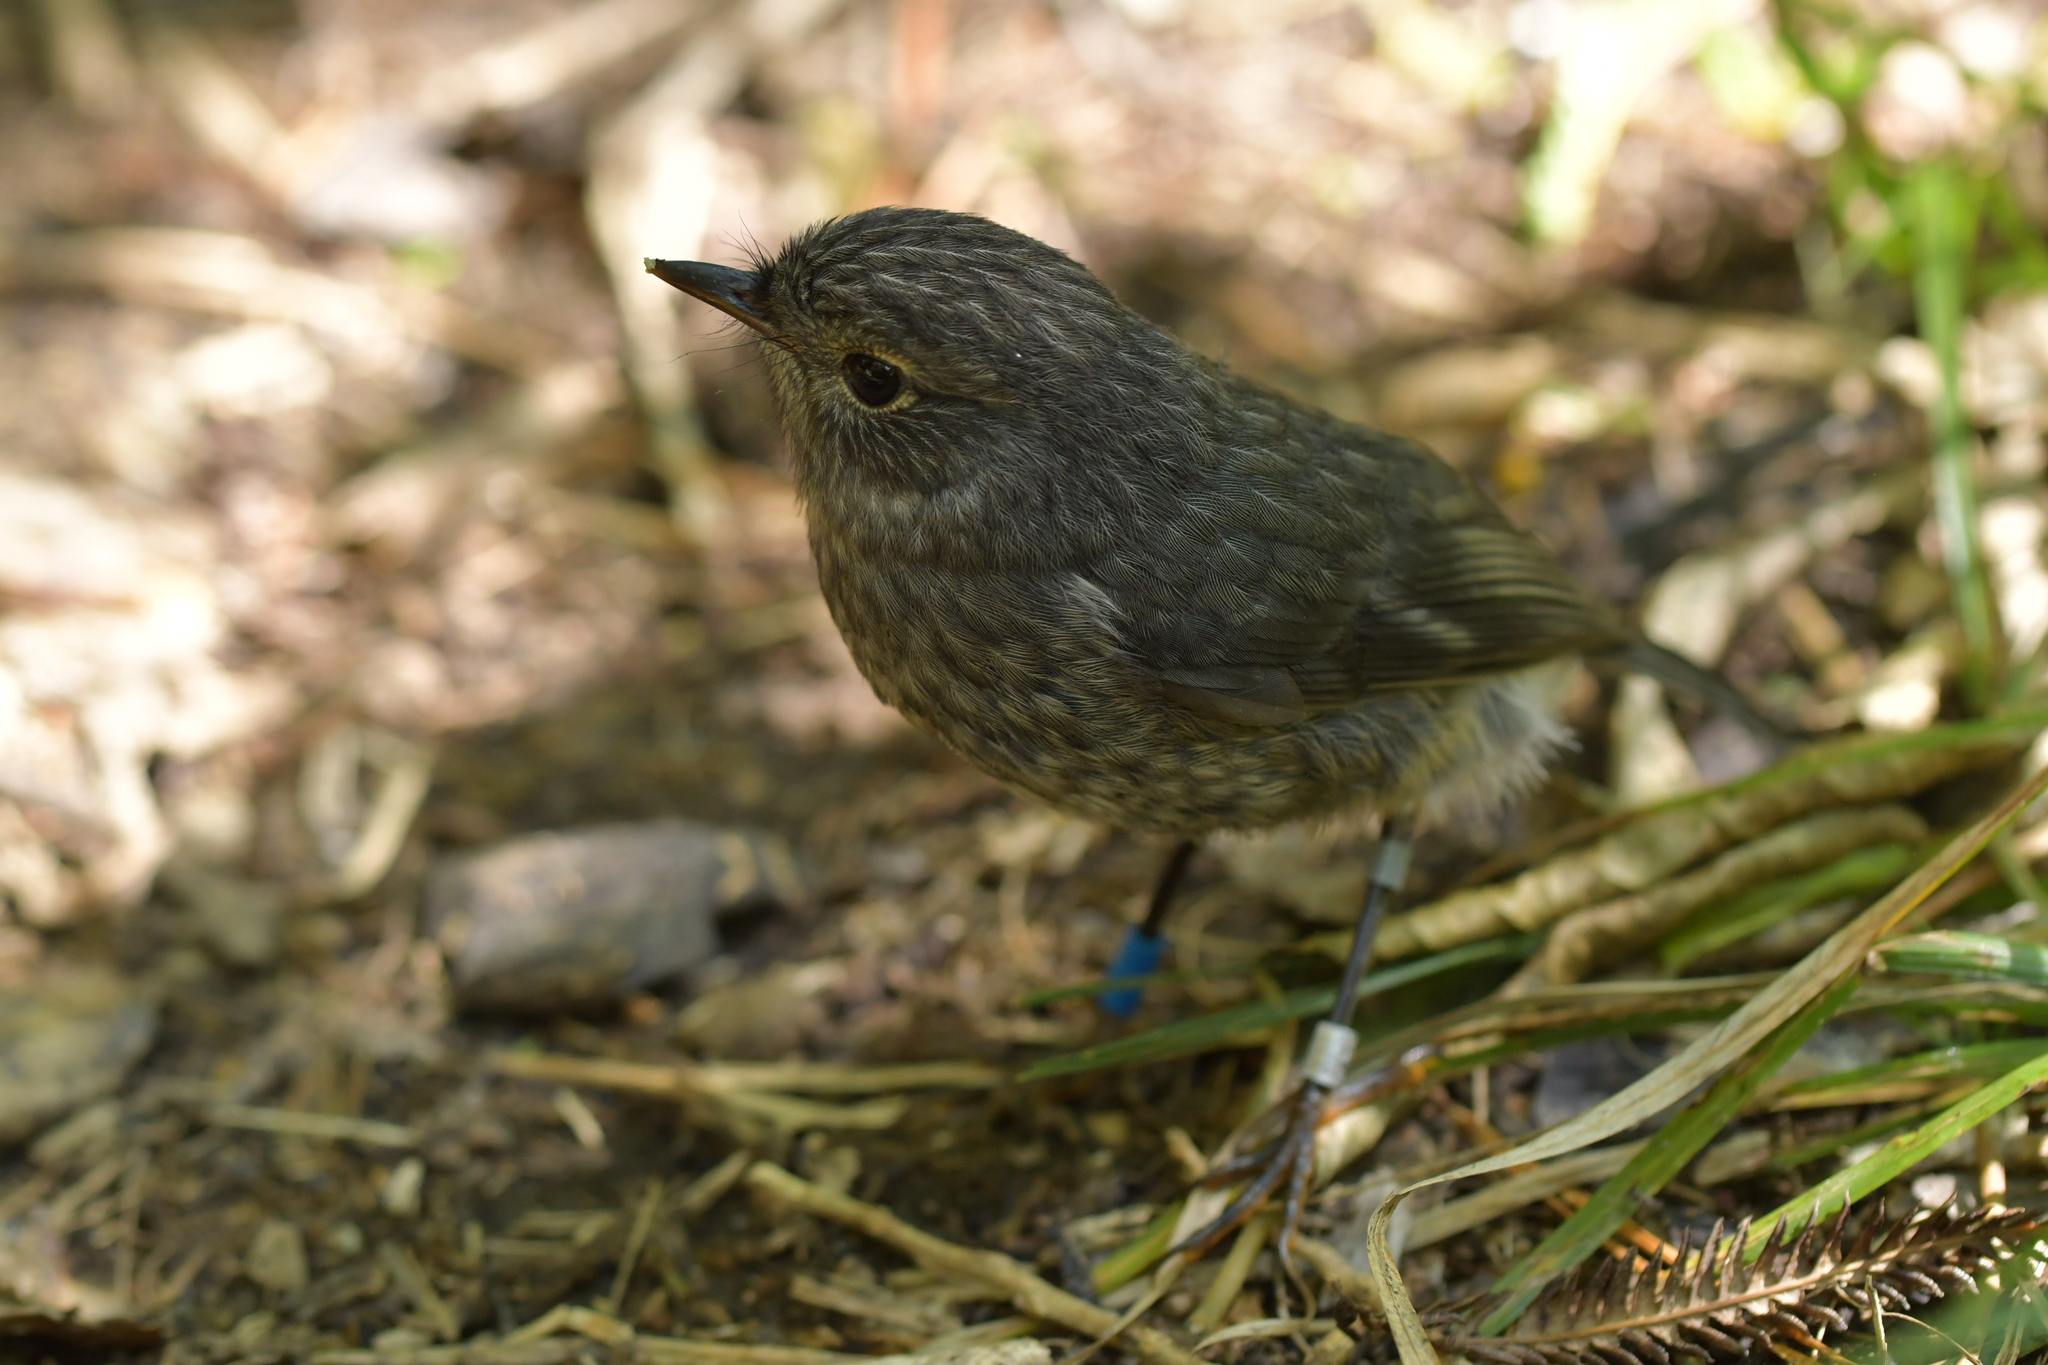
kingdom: Animalia
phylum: Chordata
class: Aves
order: Passeriformes
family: Petroicidae
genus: Petroica
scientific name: Petroica australis
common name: New zealand robin
